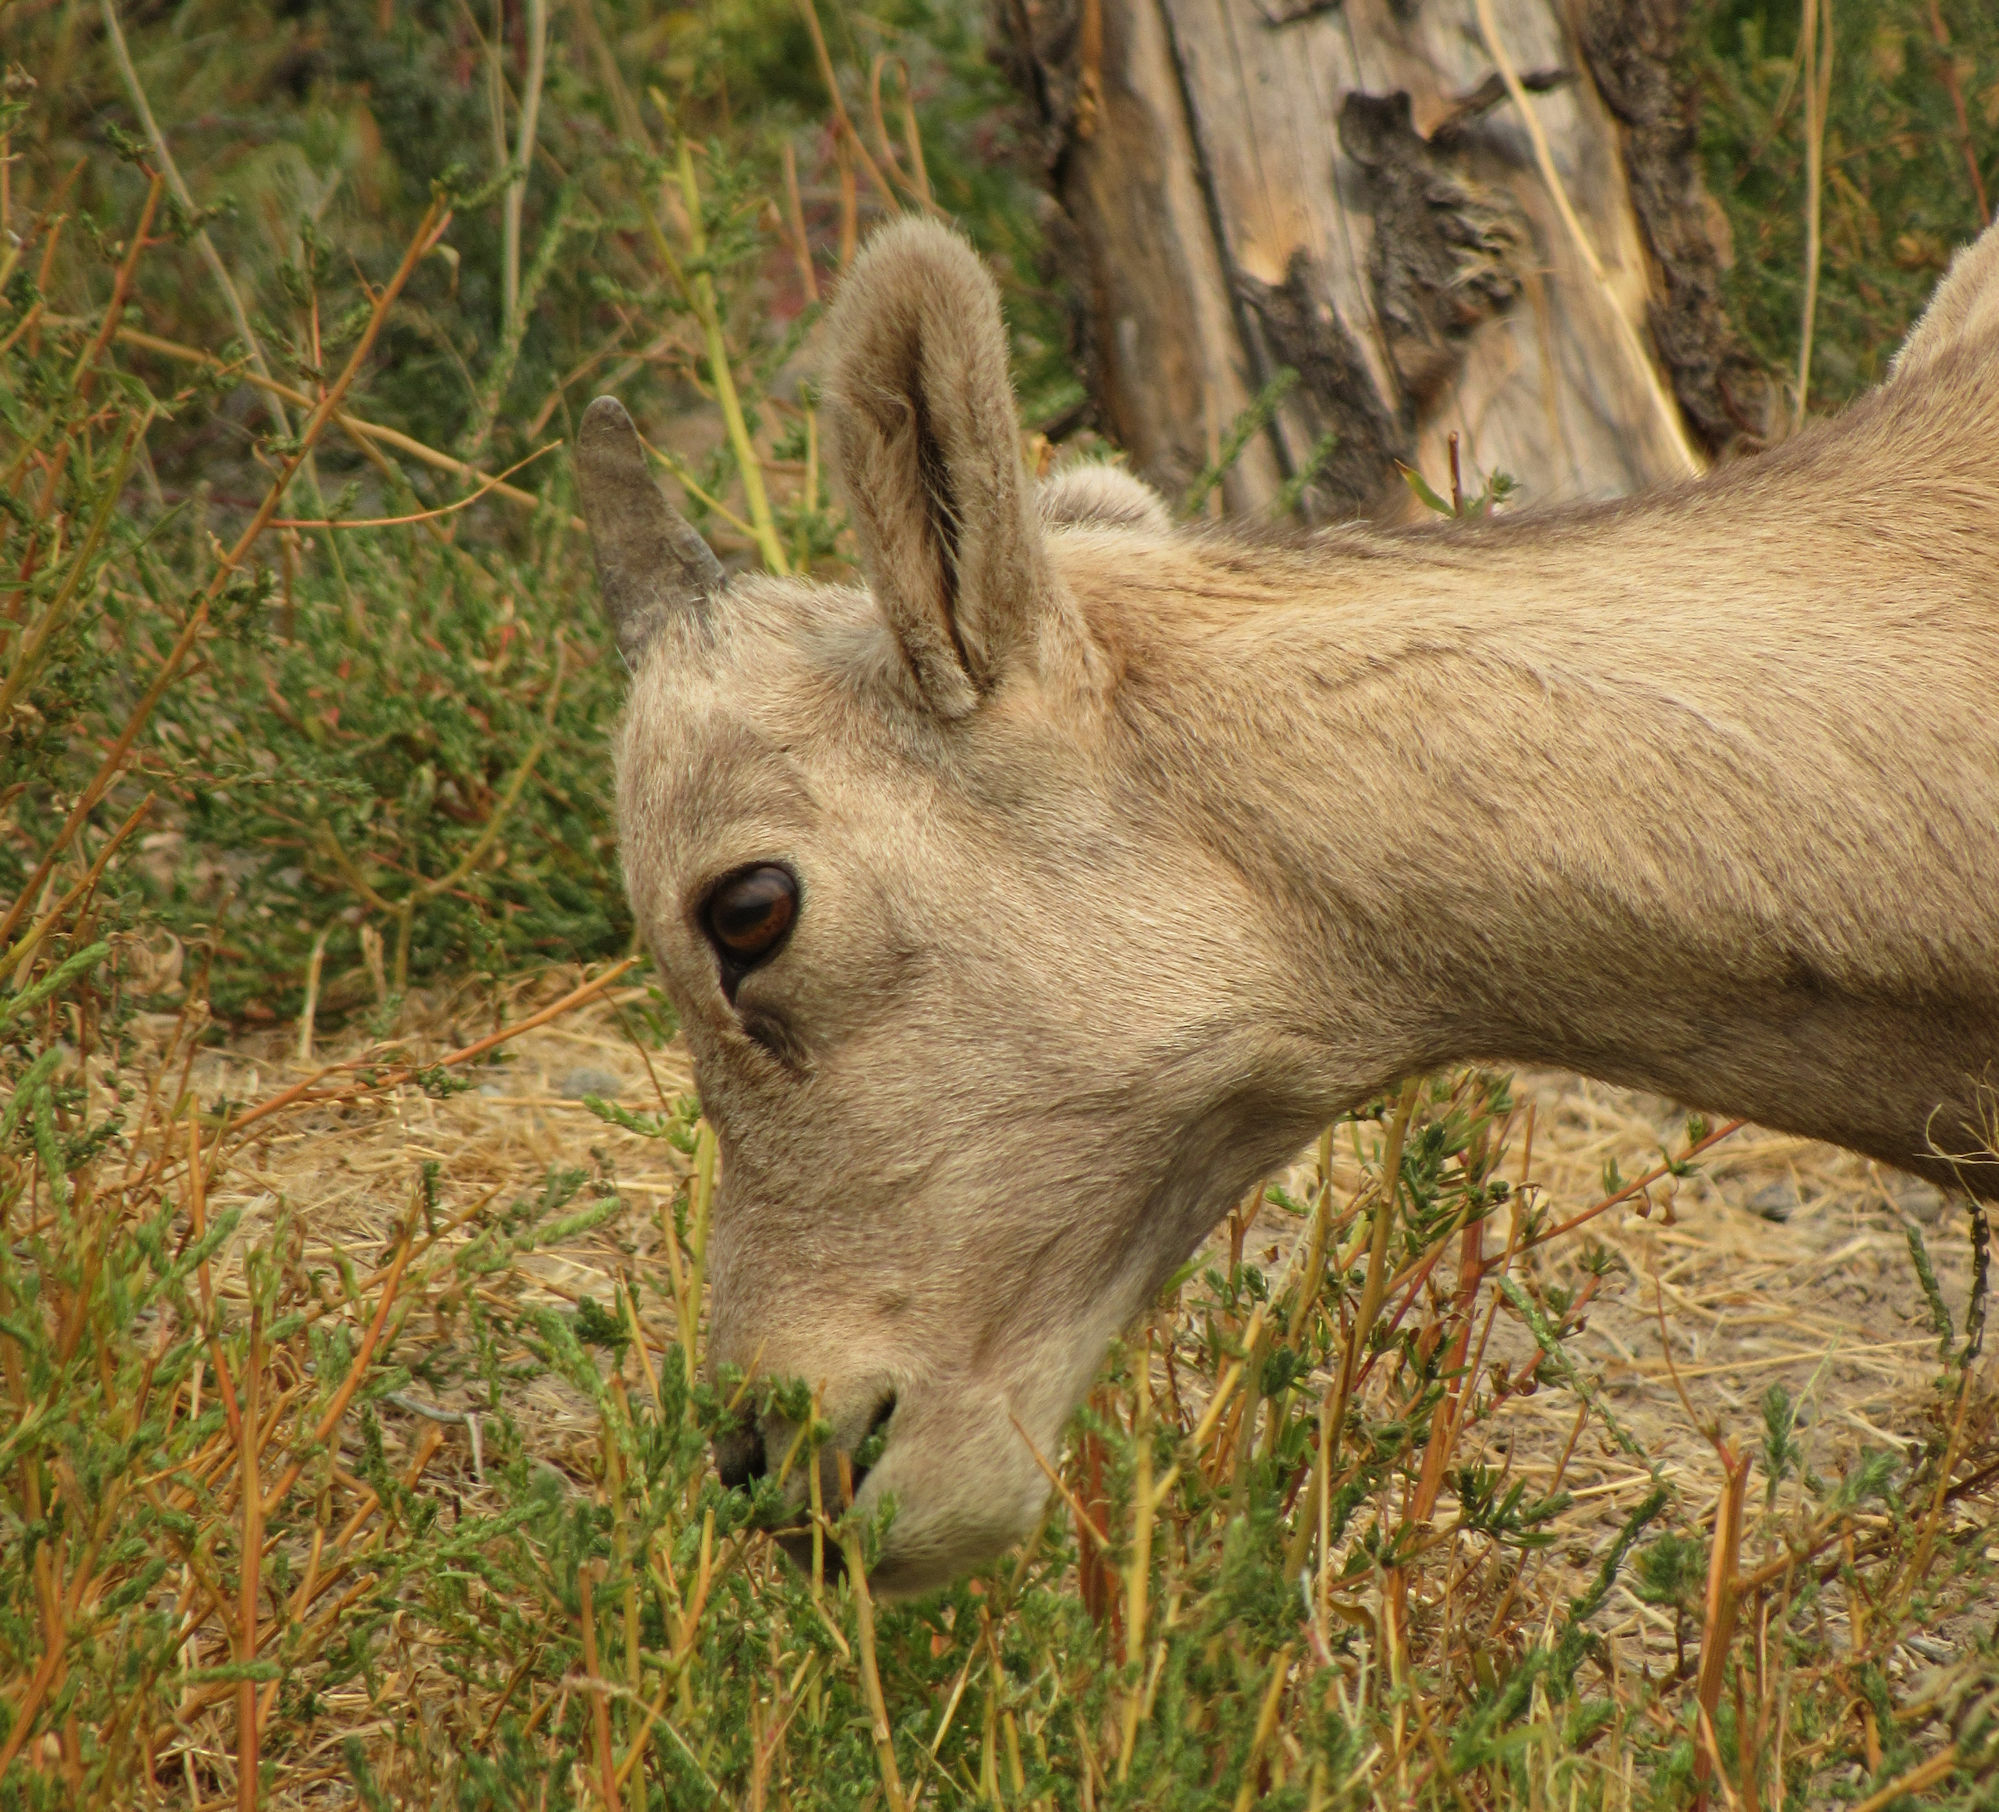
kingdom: Animalia
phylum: Chordata
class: Mammalia
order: Artiodactyla
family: Bovidae
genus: Ovis
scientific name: Ovis canadensis
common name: Bighorn sheep
